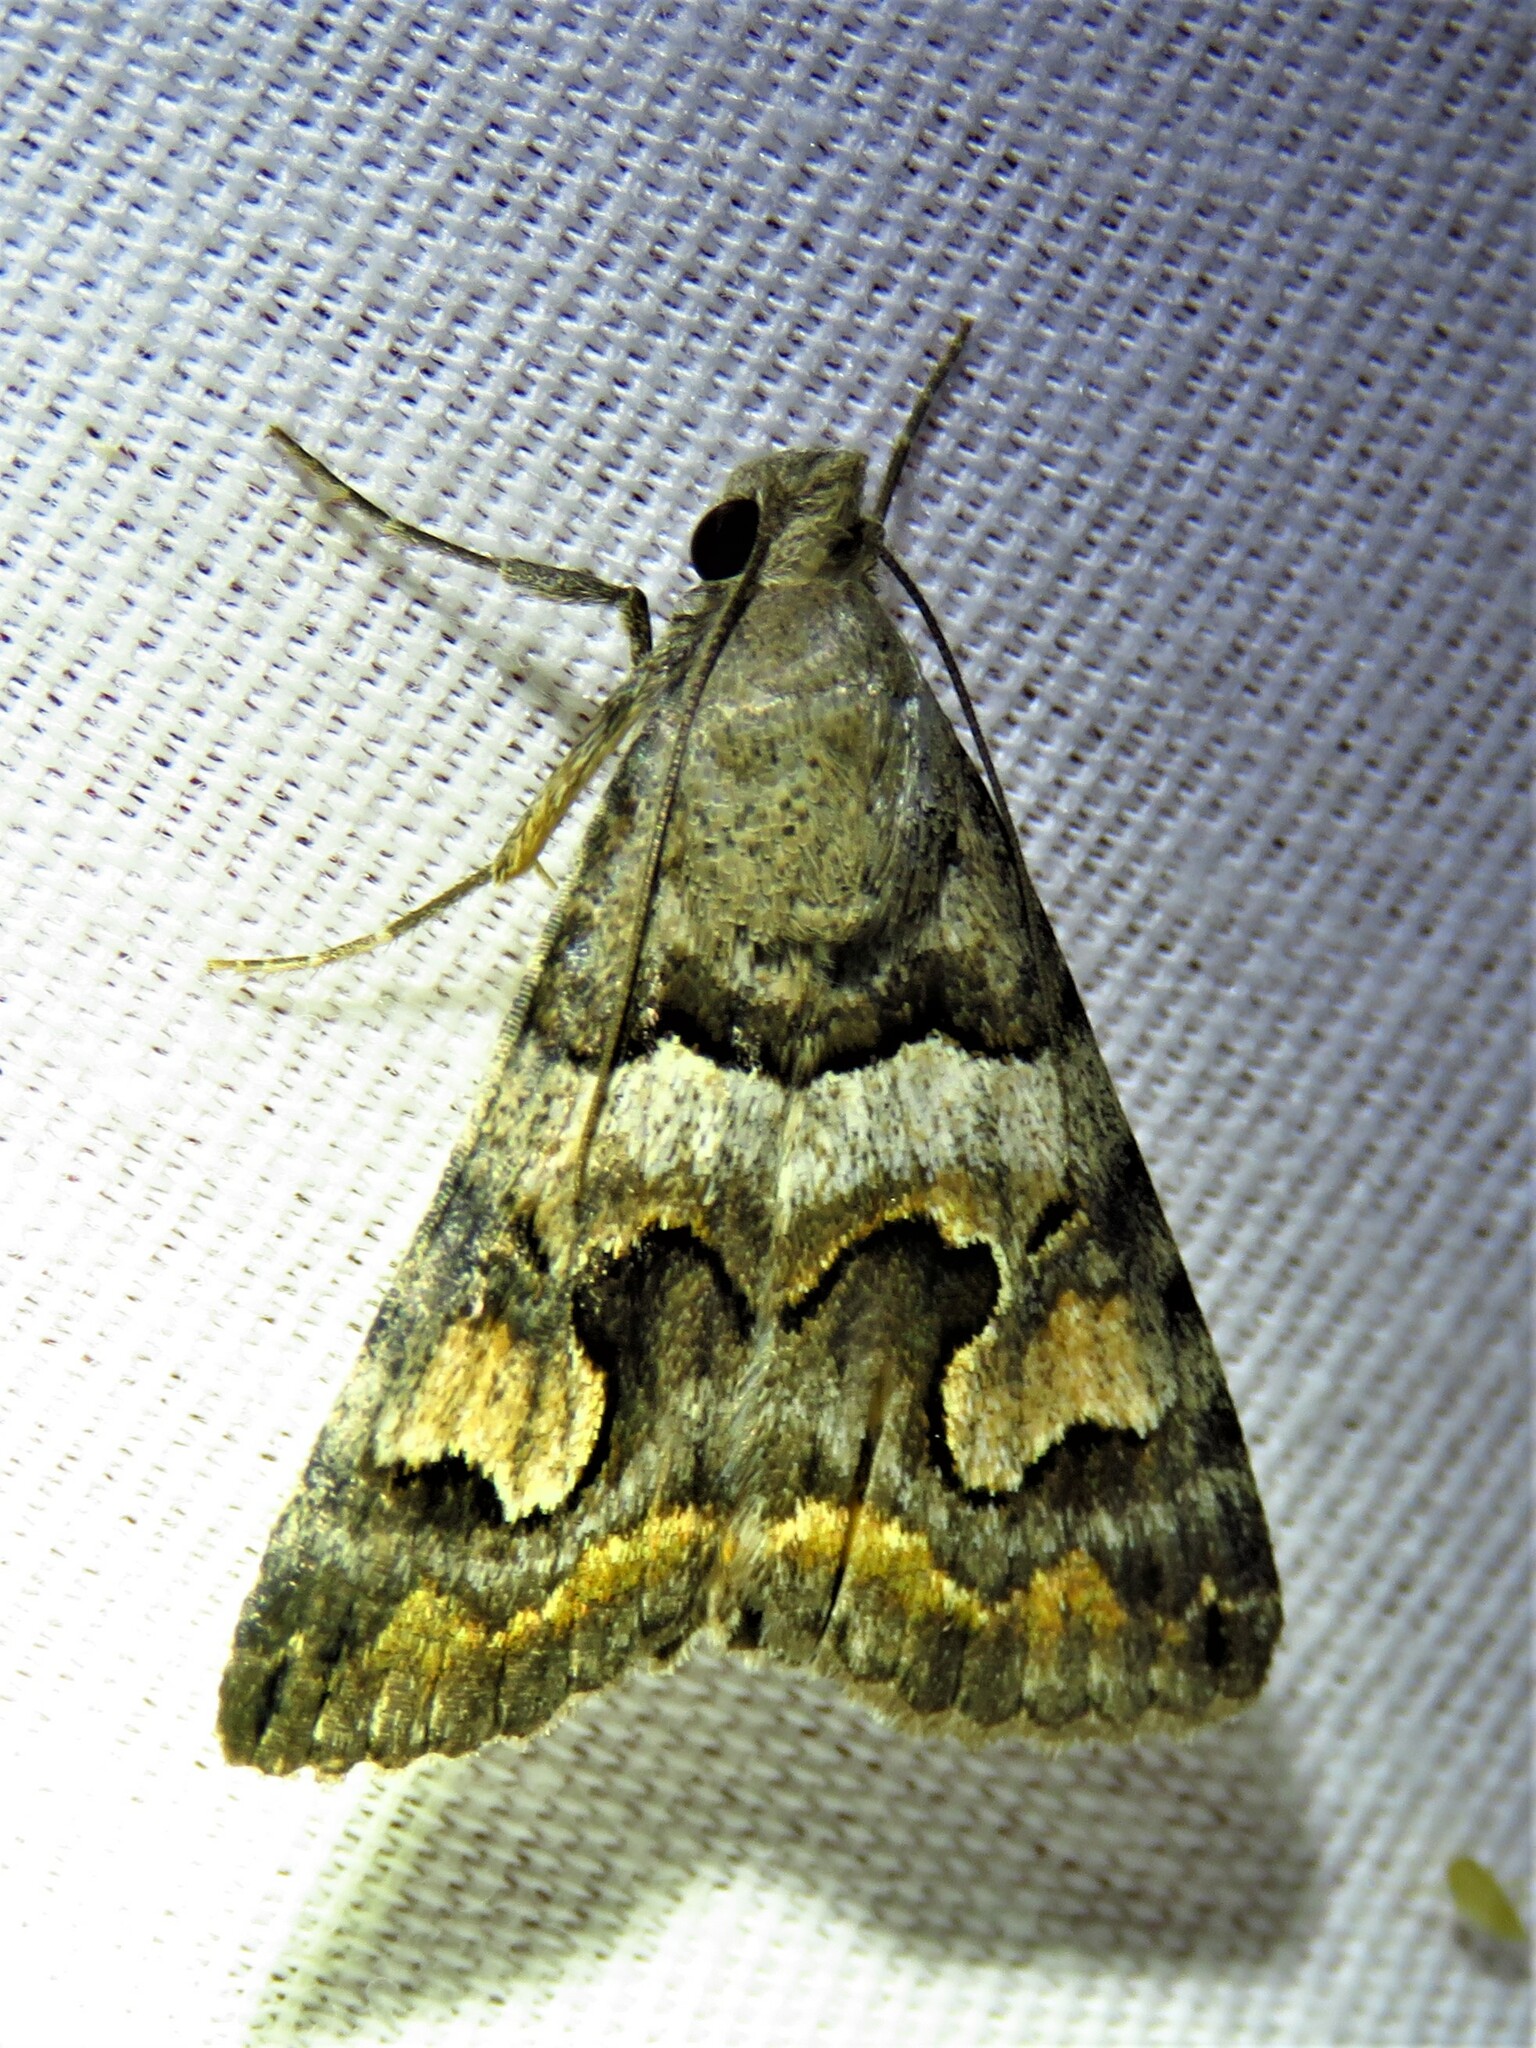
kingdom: Animalia
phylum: Arthropoda
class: Insecta
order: Lepidoptera
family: Erebidae
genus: Bulia
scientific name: Bulia deducta
